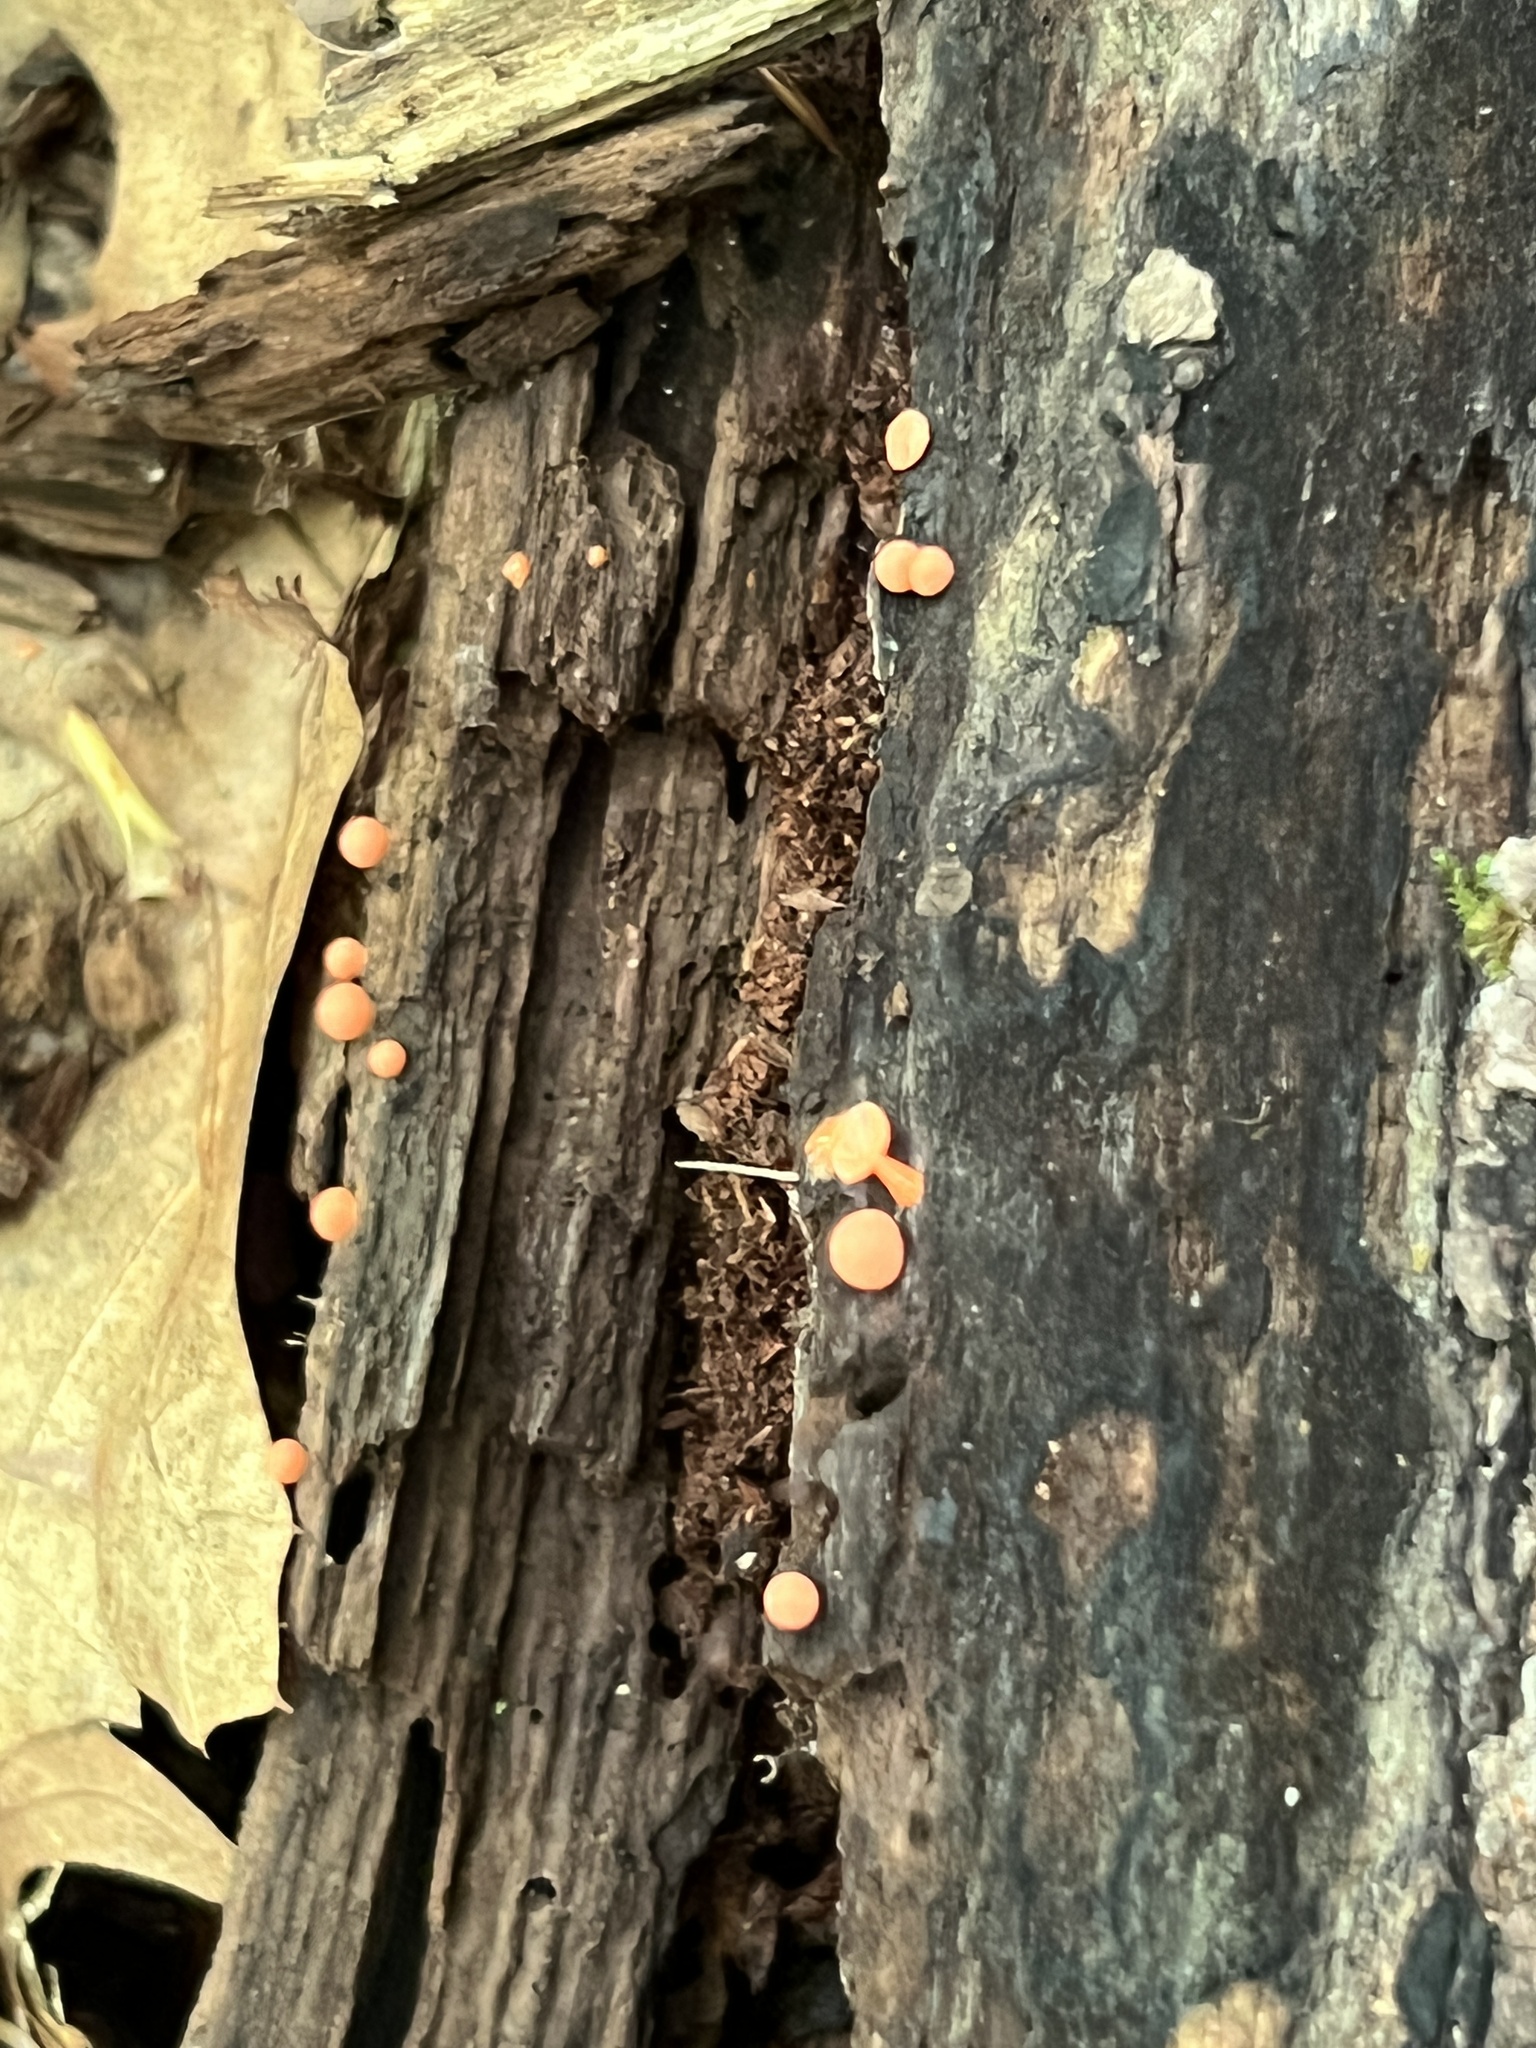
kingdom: Protozoa
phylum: Mycetozoa
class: Myxomycetes
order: Cribrariales
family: Tubiferaceae
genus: Lycogala
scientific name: Lycogala epidendrum
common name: Wolf's milk
